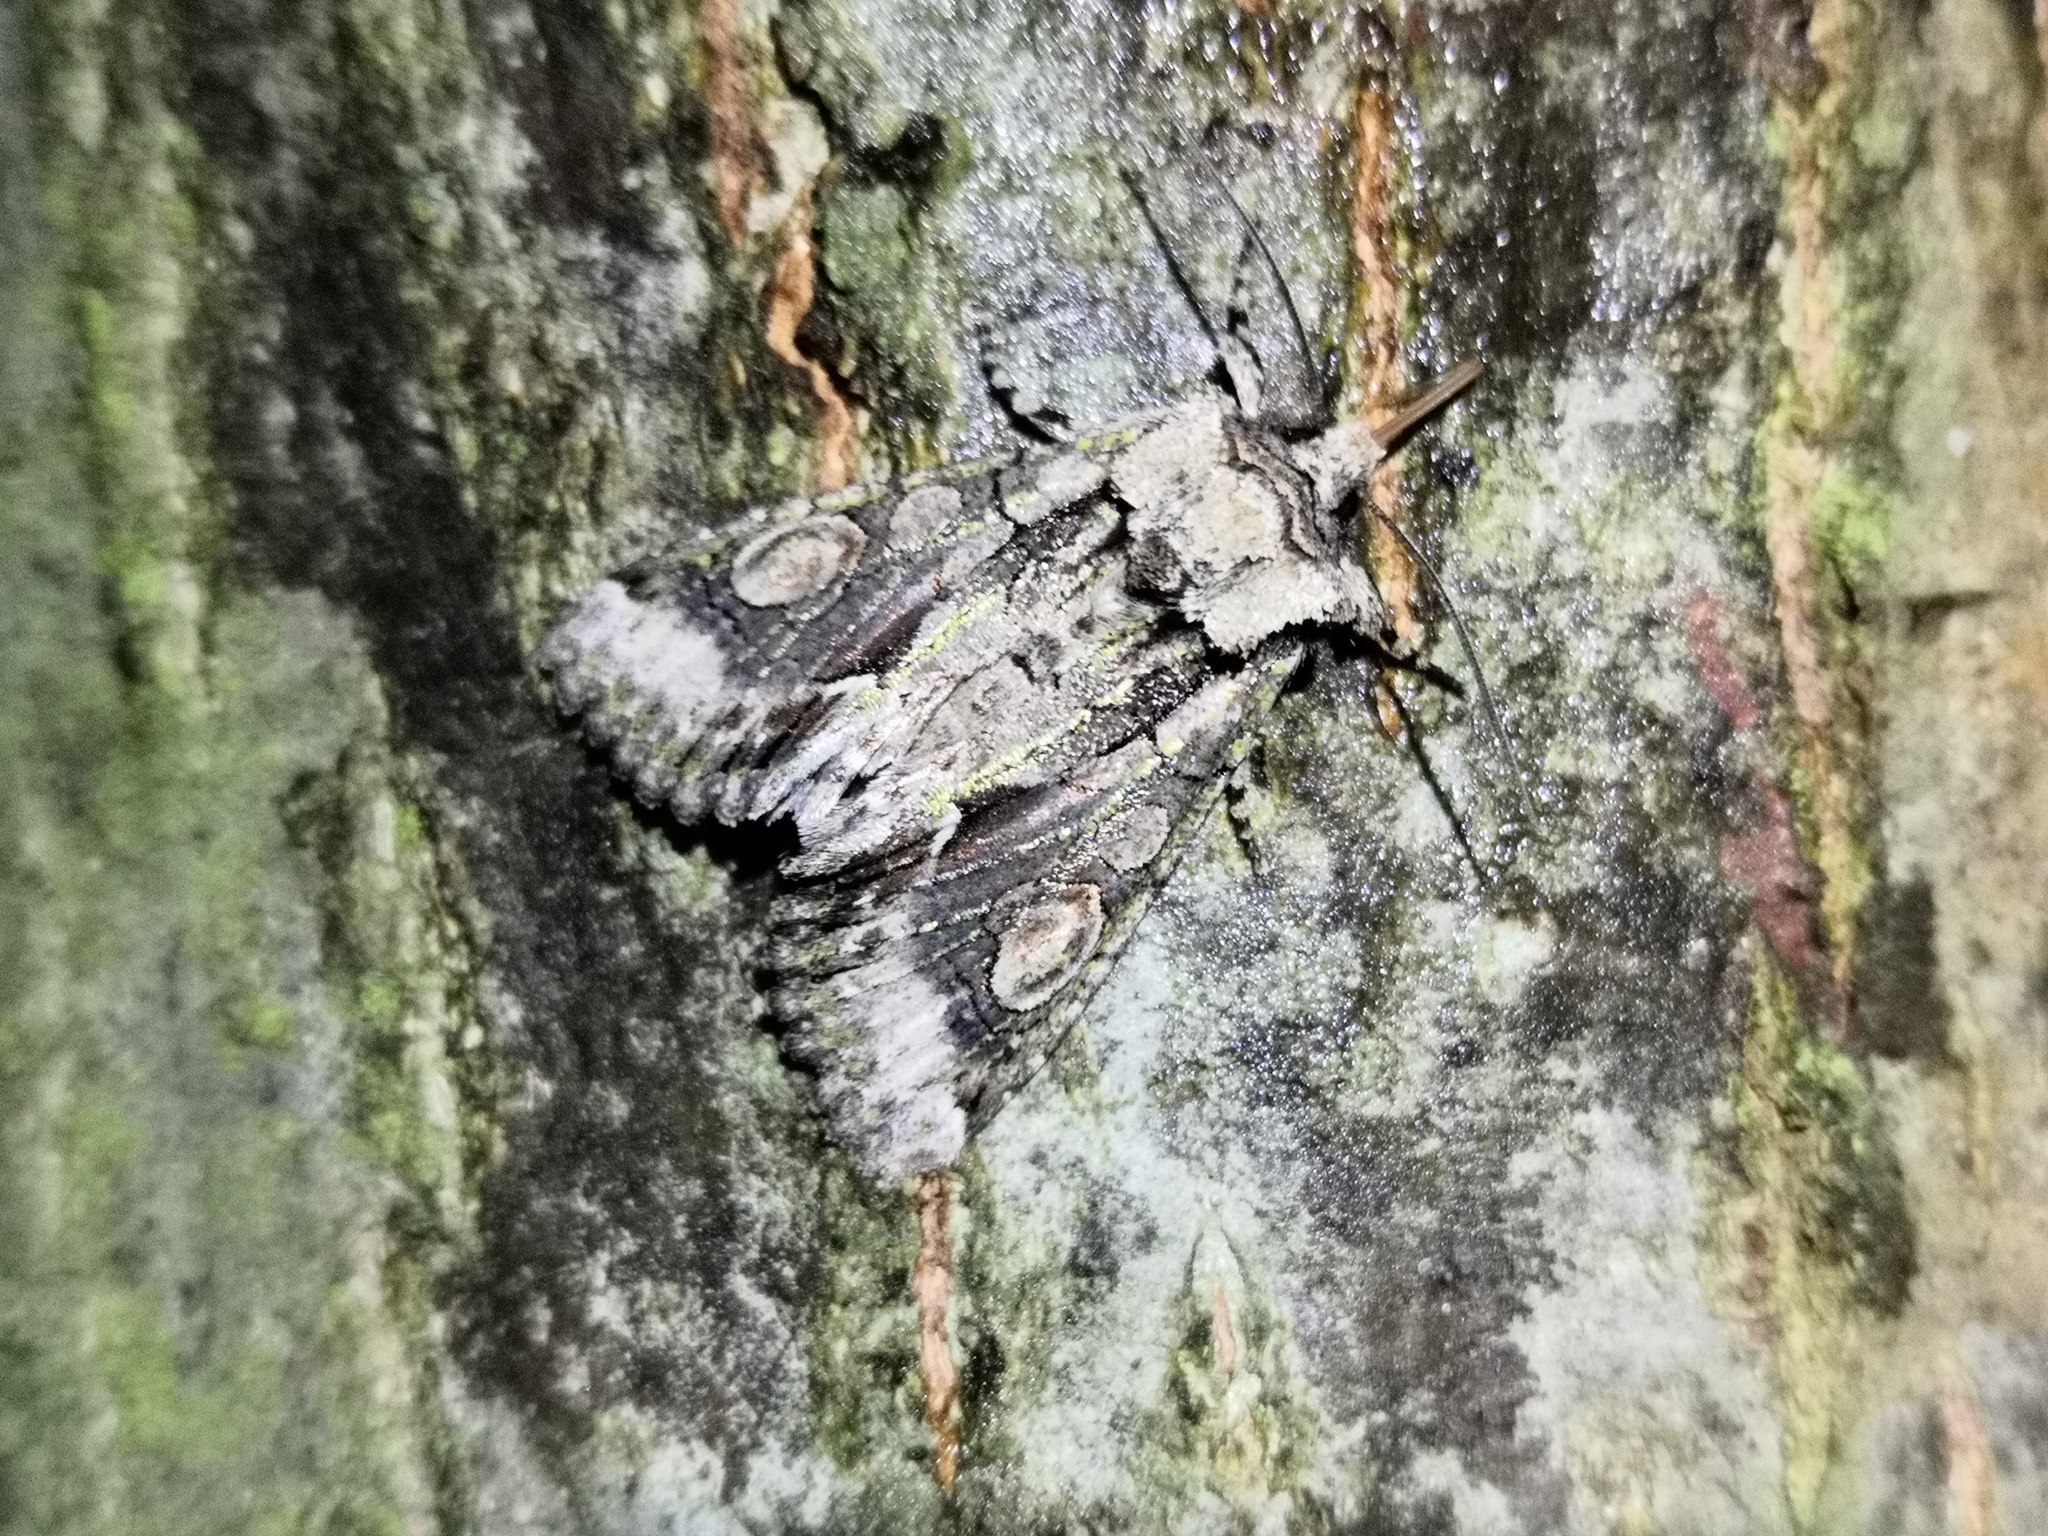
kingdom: Animalia
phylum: Arthropoda
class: Insecta
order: Lepidoptera
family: Noctuidae
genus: Allophyes
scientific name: Allophyes oxyacanthae
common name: Green-brindled crescent
